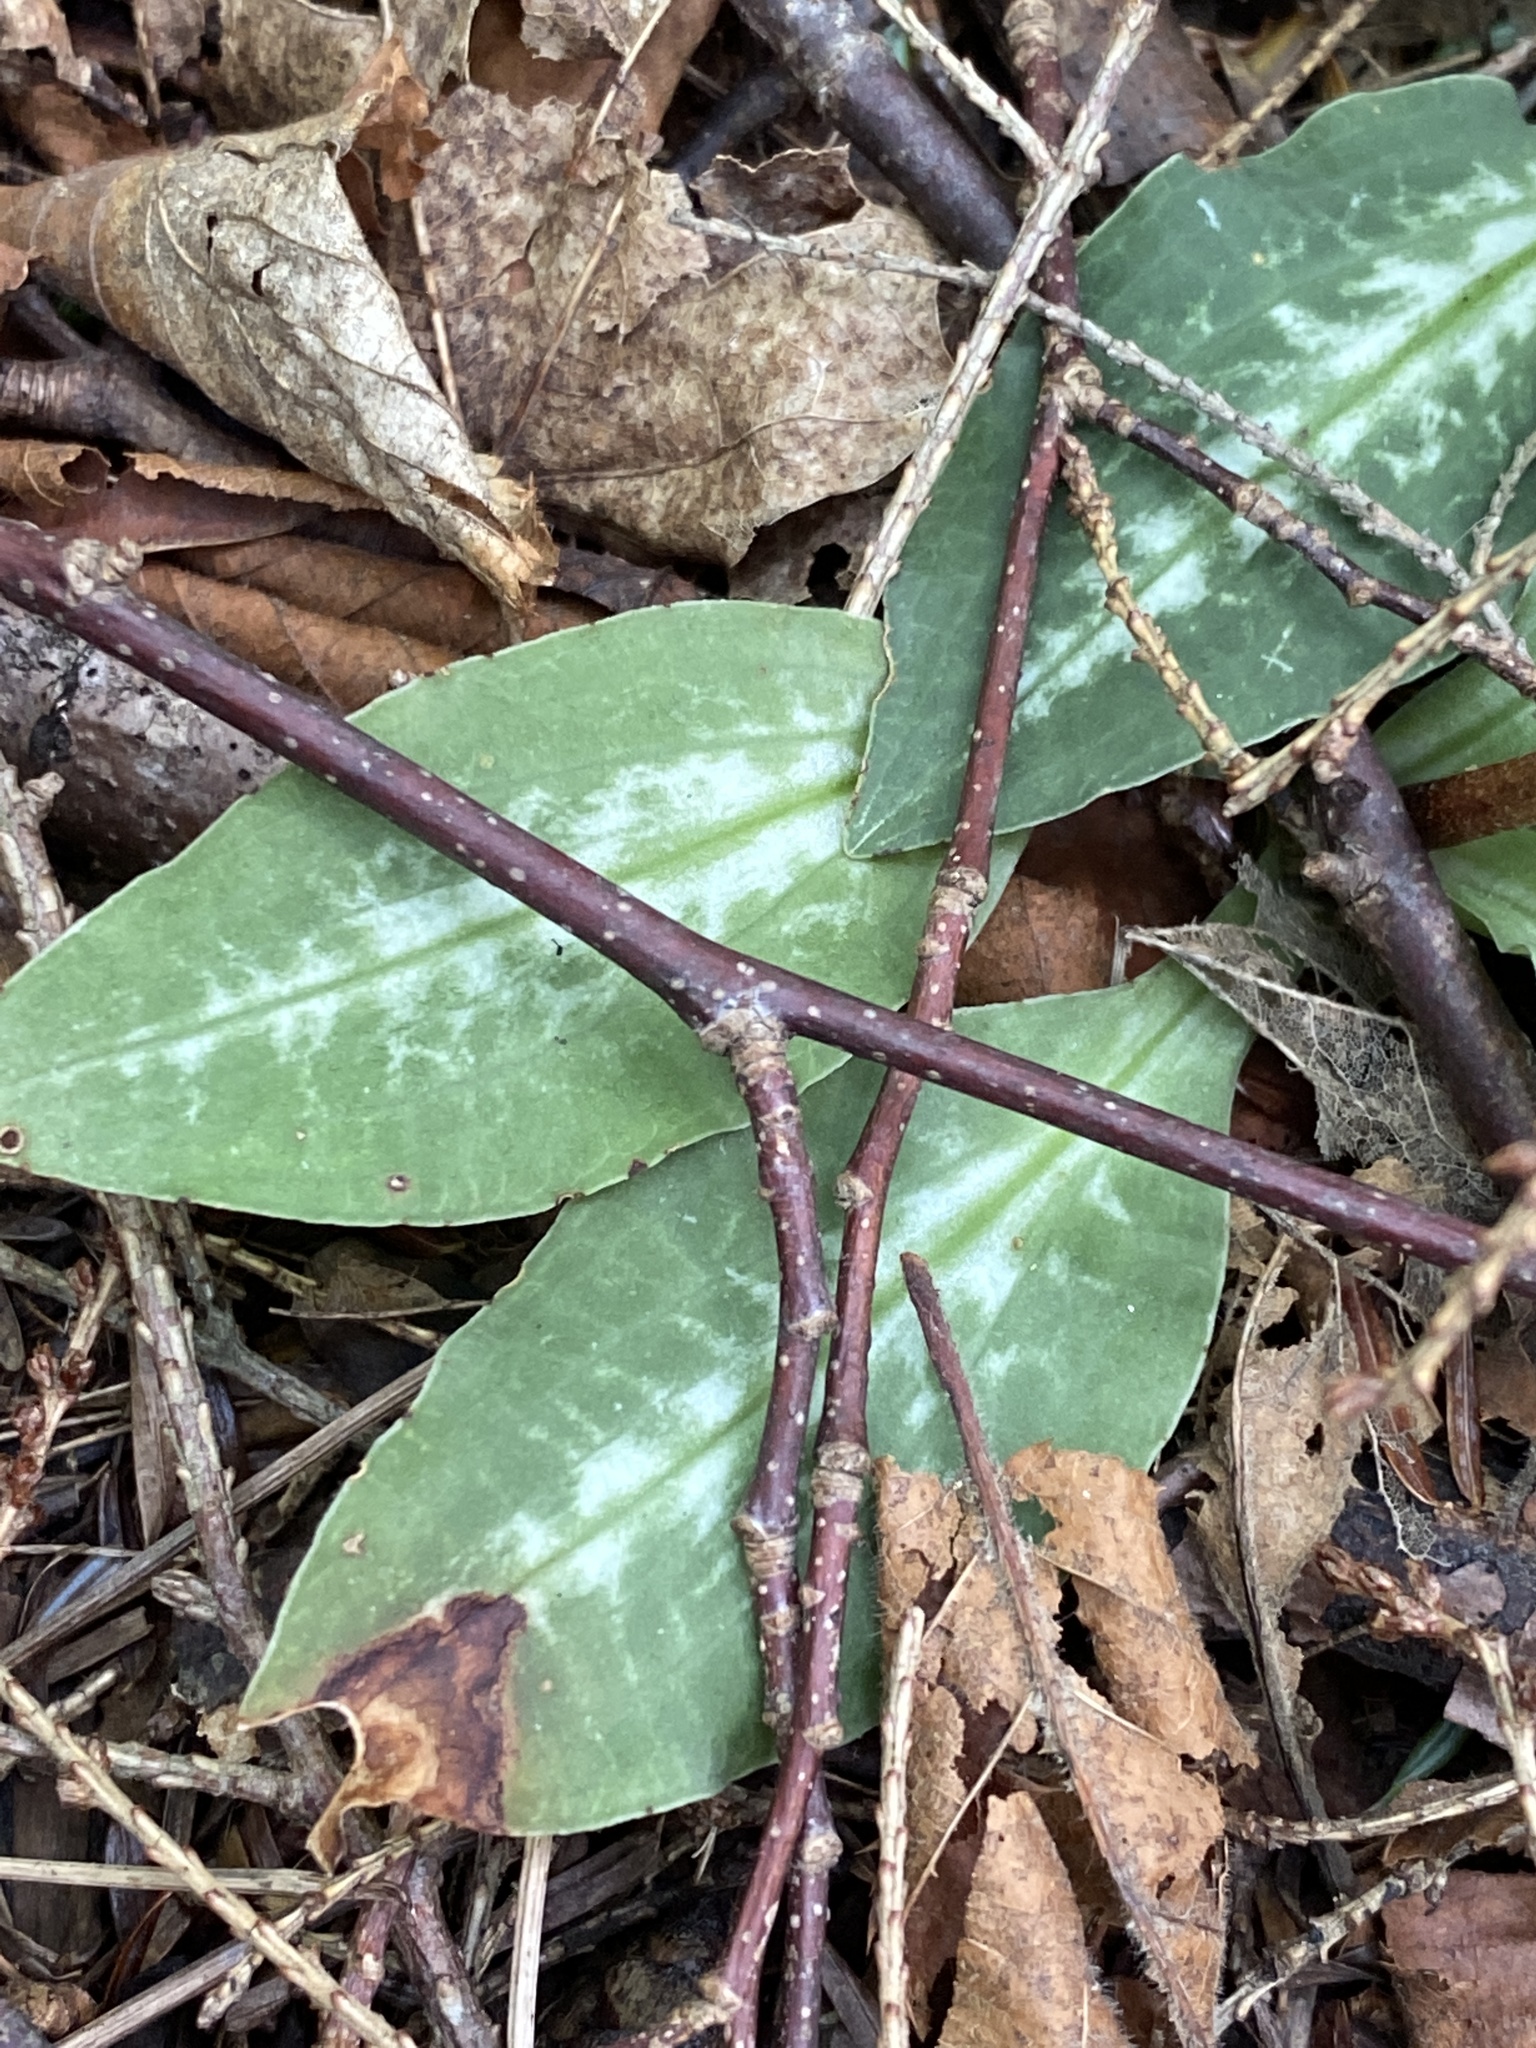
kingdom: Plantae
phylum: Tracheophyta
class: Liliopsida
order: Asparagales
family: Orchidaceae
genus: Goodyera
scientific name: Goodyera oblongifolia
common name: Giant rattlesnake-plantain
